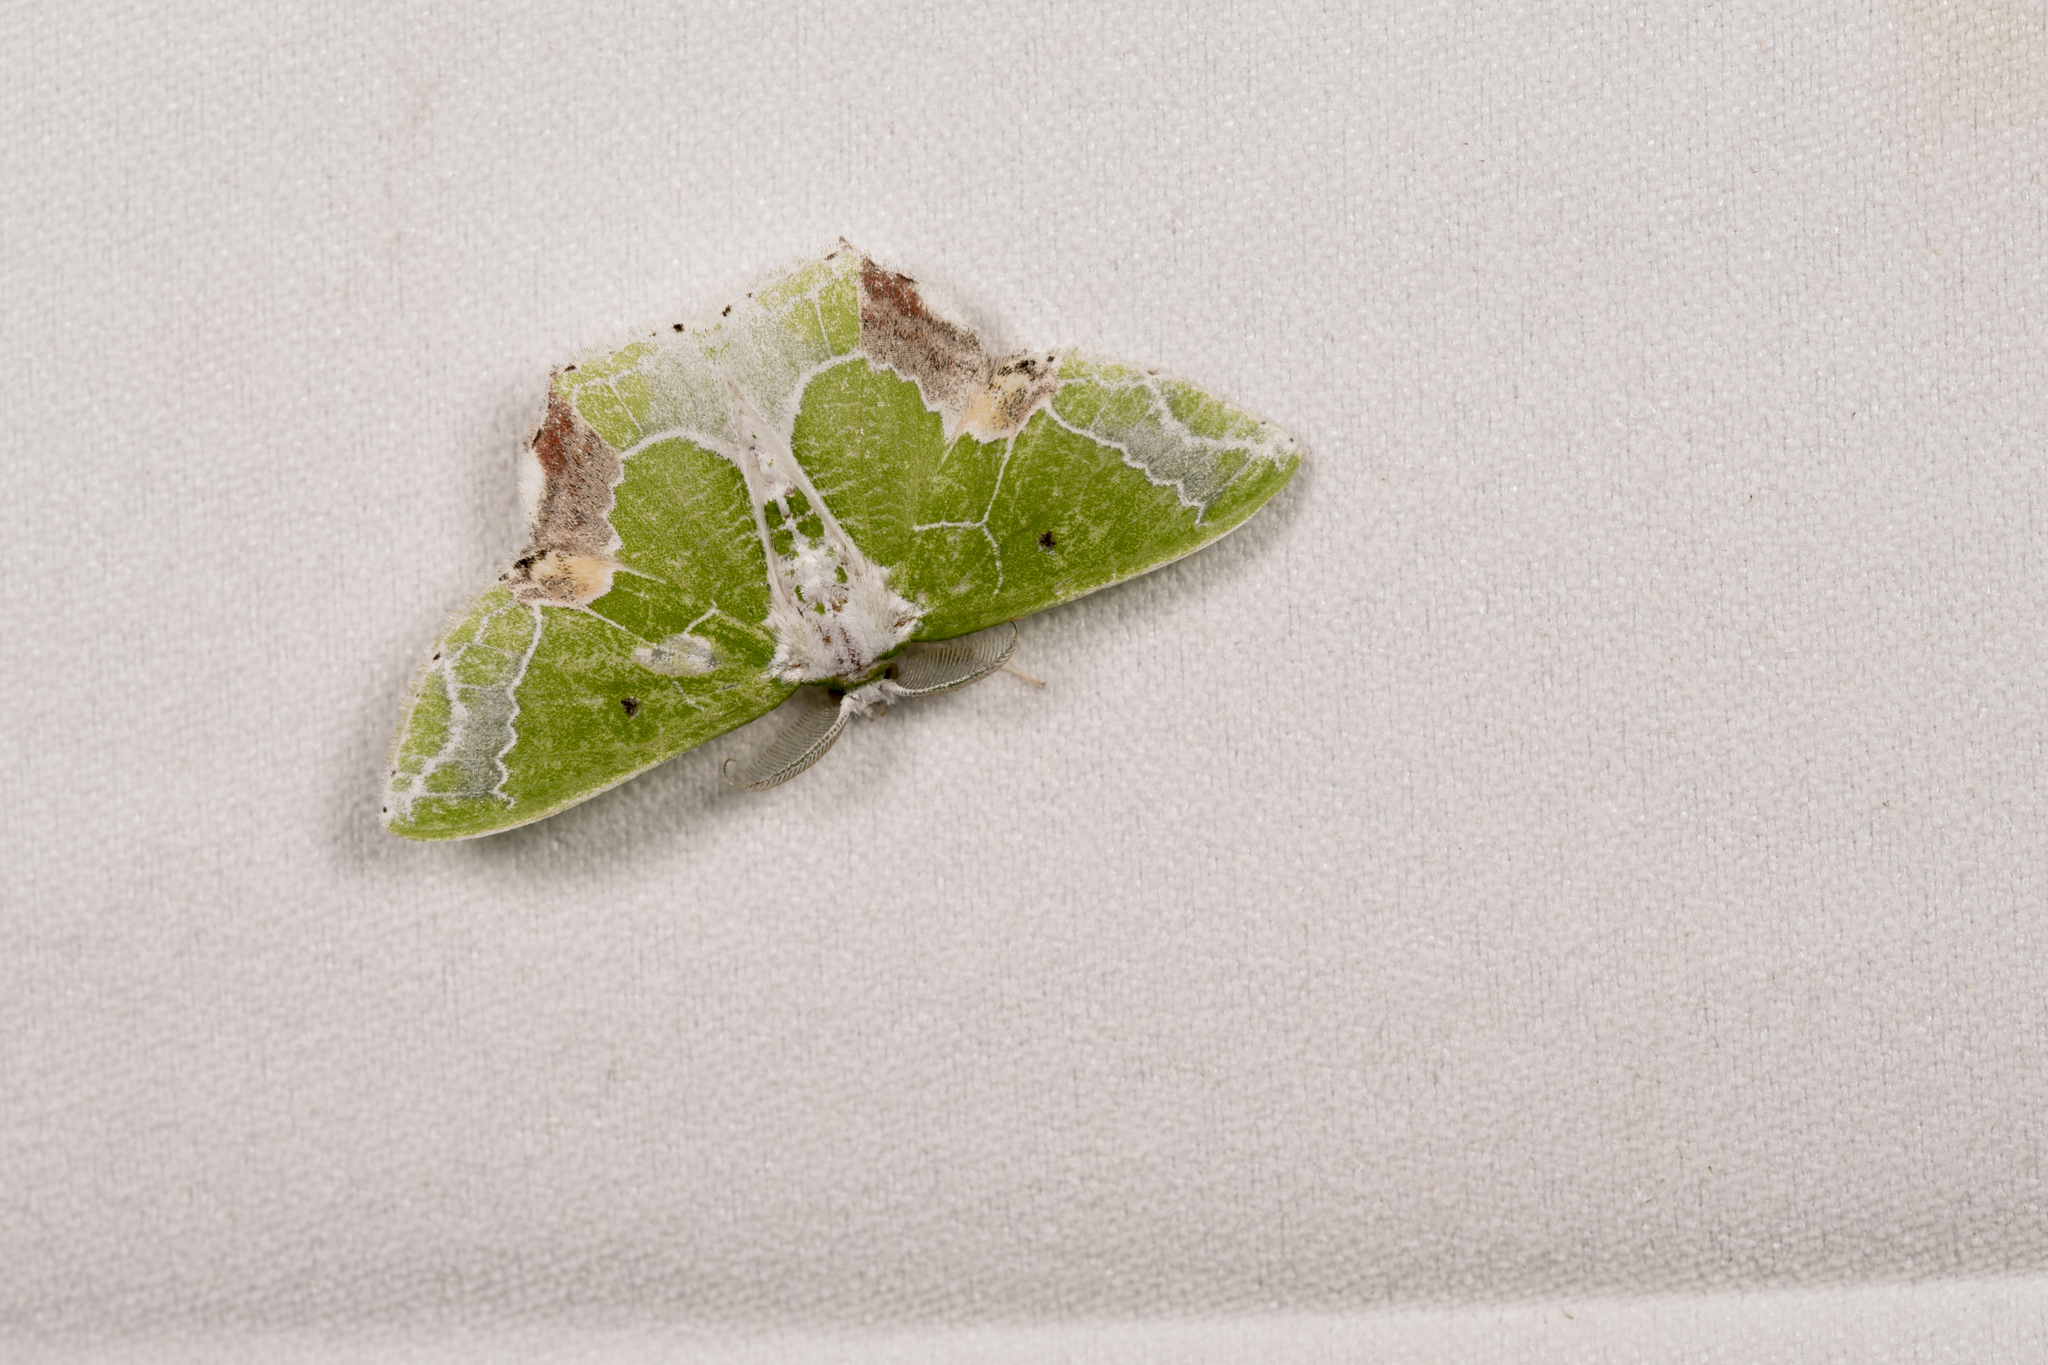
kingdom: Animalia
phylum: Arthropoda
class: Insecta
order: Lepidoptera
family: Geometridae
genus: Protuliocnemis
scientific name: Protuliocnemis partita
